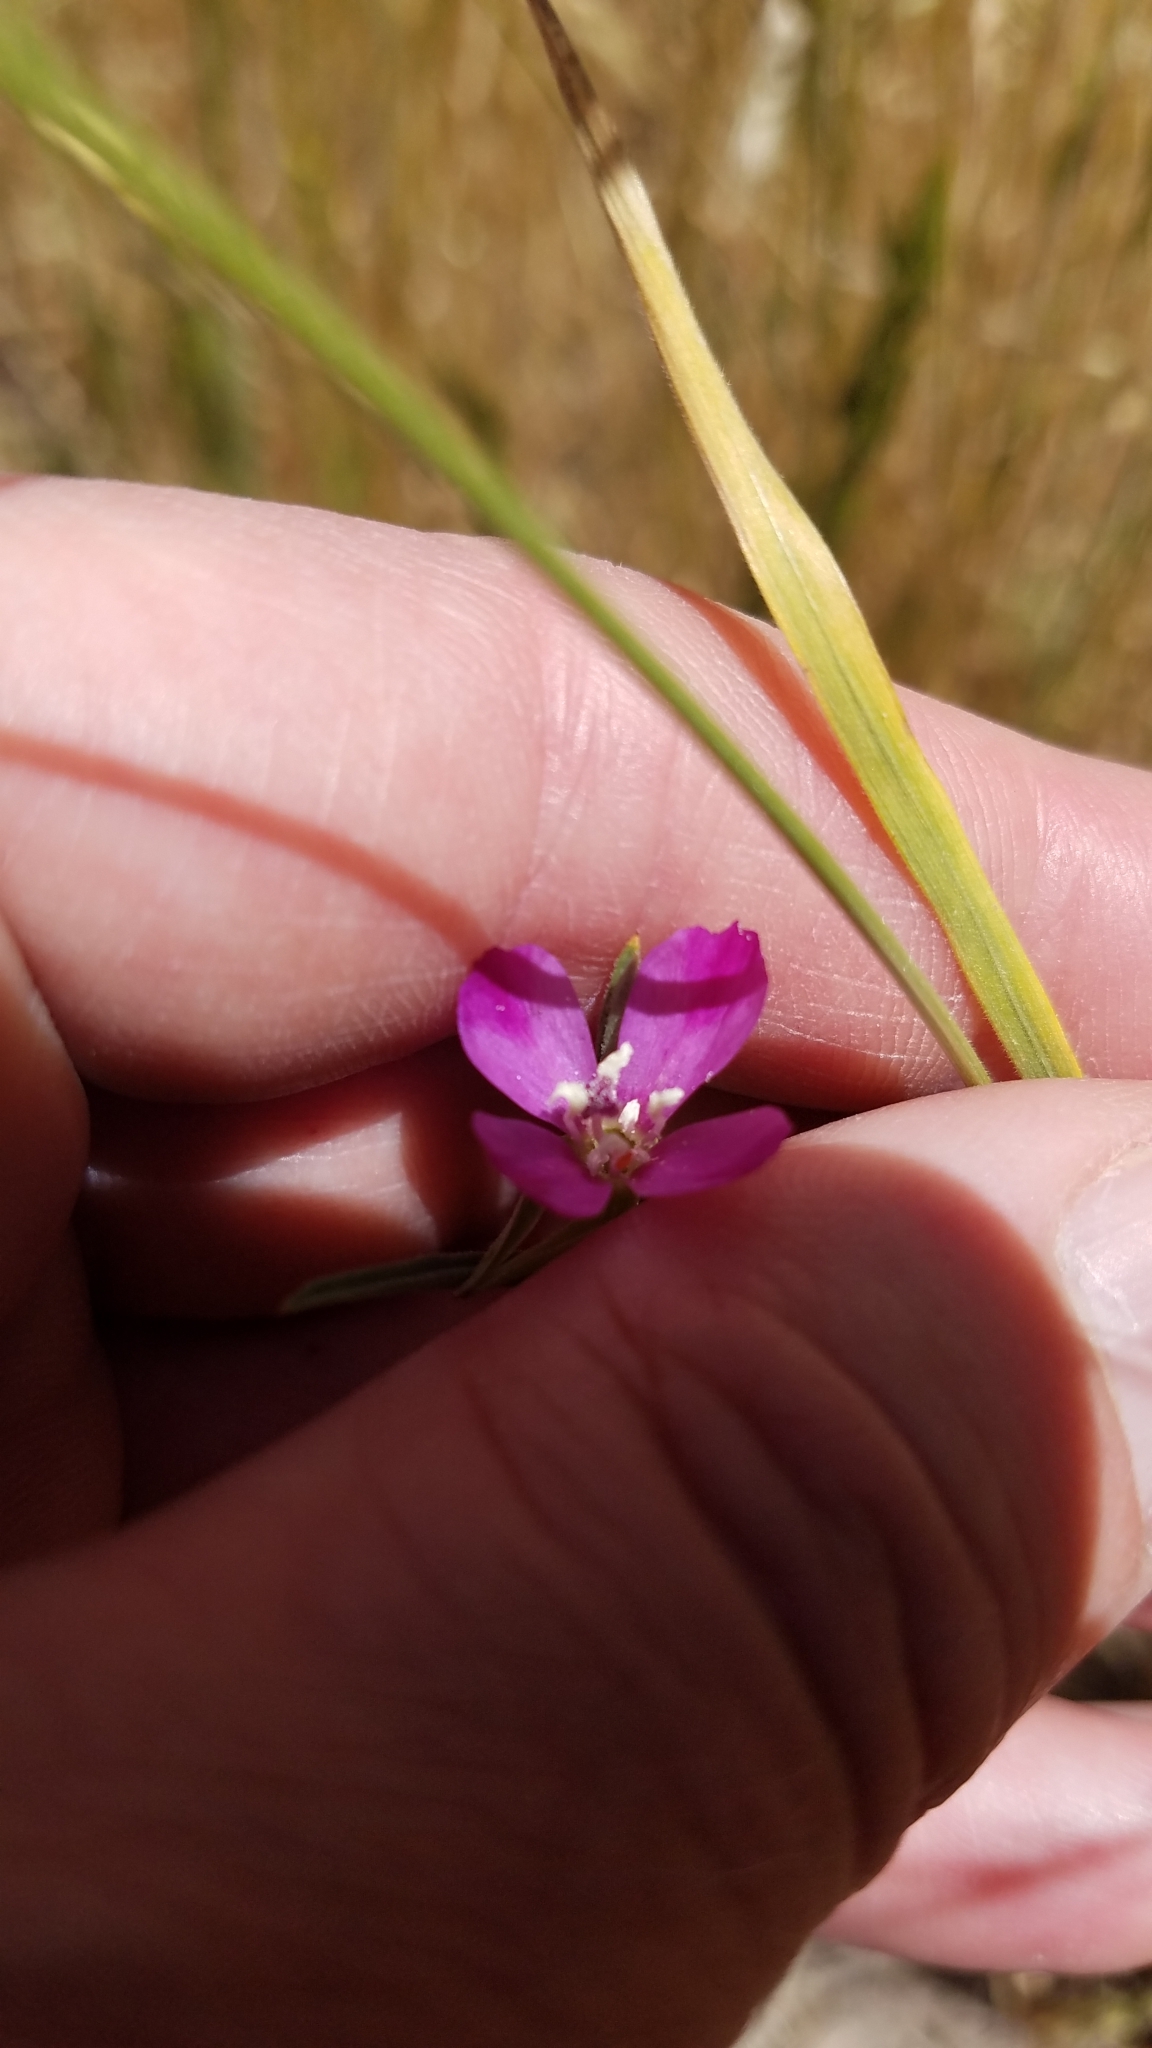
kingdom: Plantae
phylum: Tracheophyta
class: Magnoliopsida
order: Myrtales
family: Onagraceae
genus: Clarkia
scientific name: Clarkia purpurea
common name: Purple clarkia
